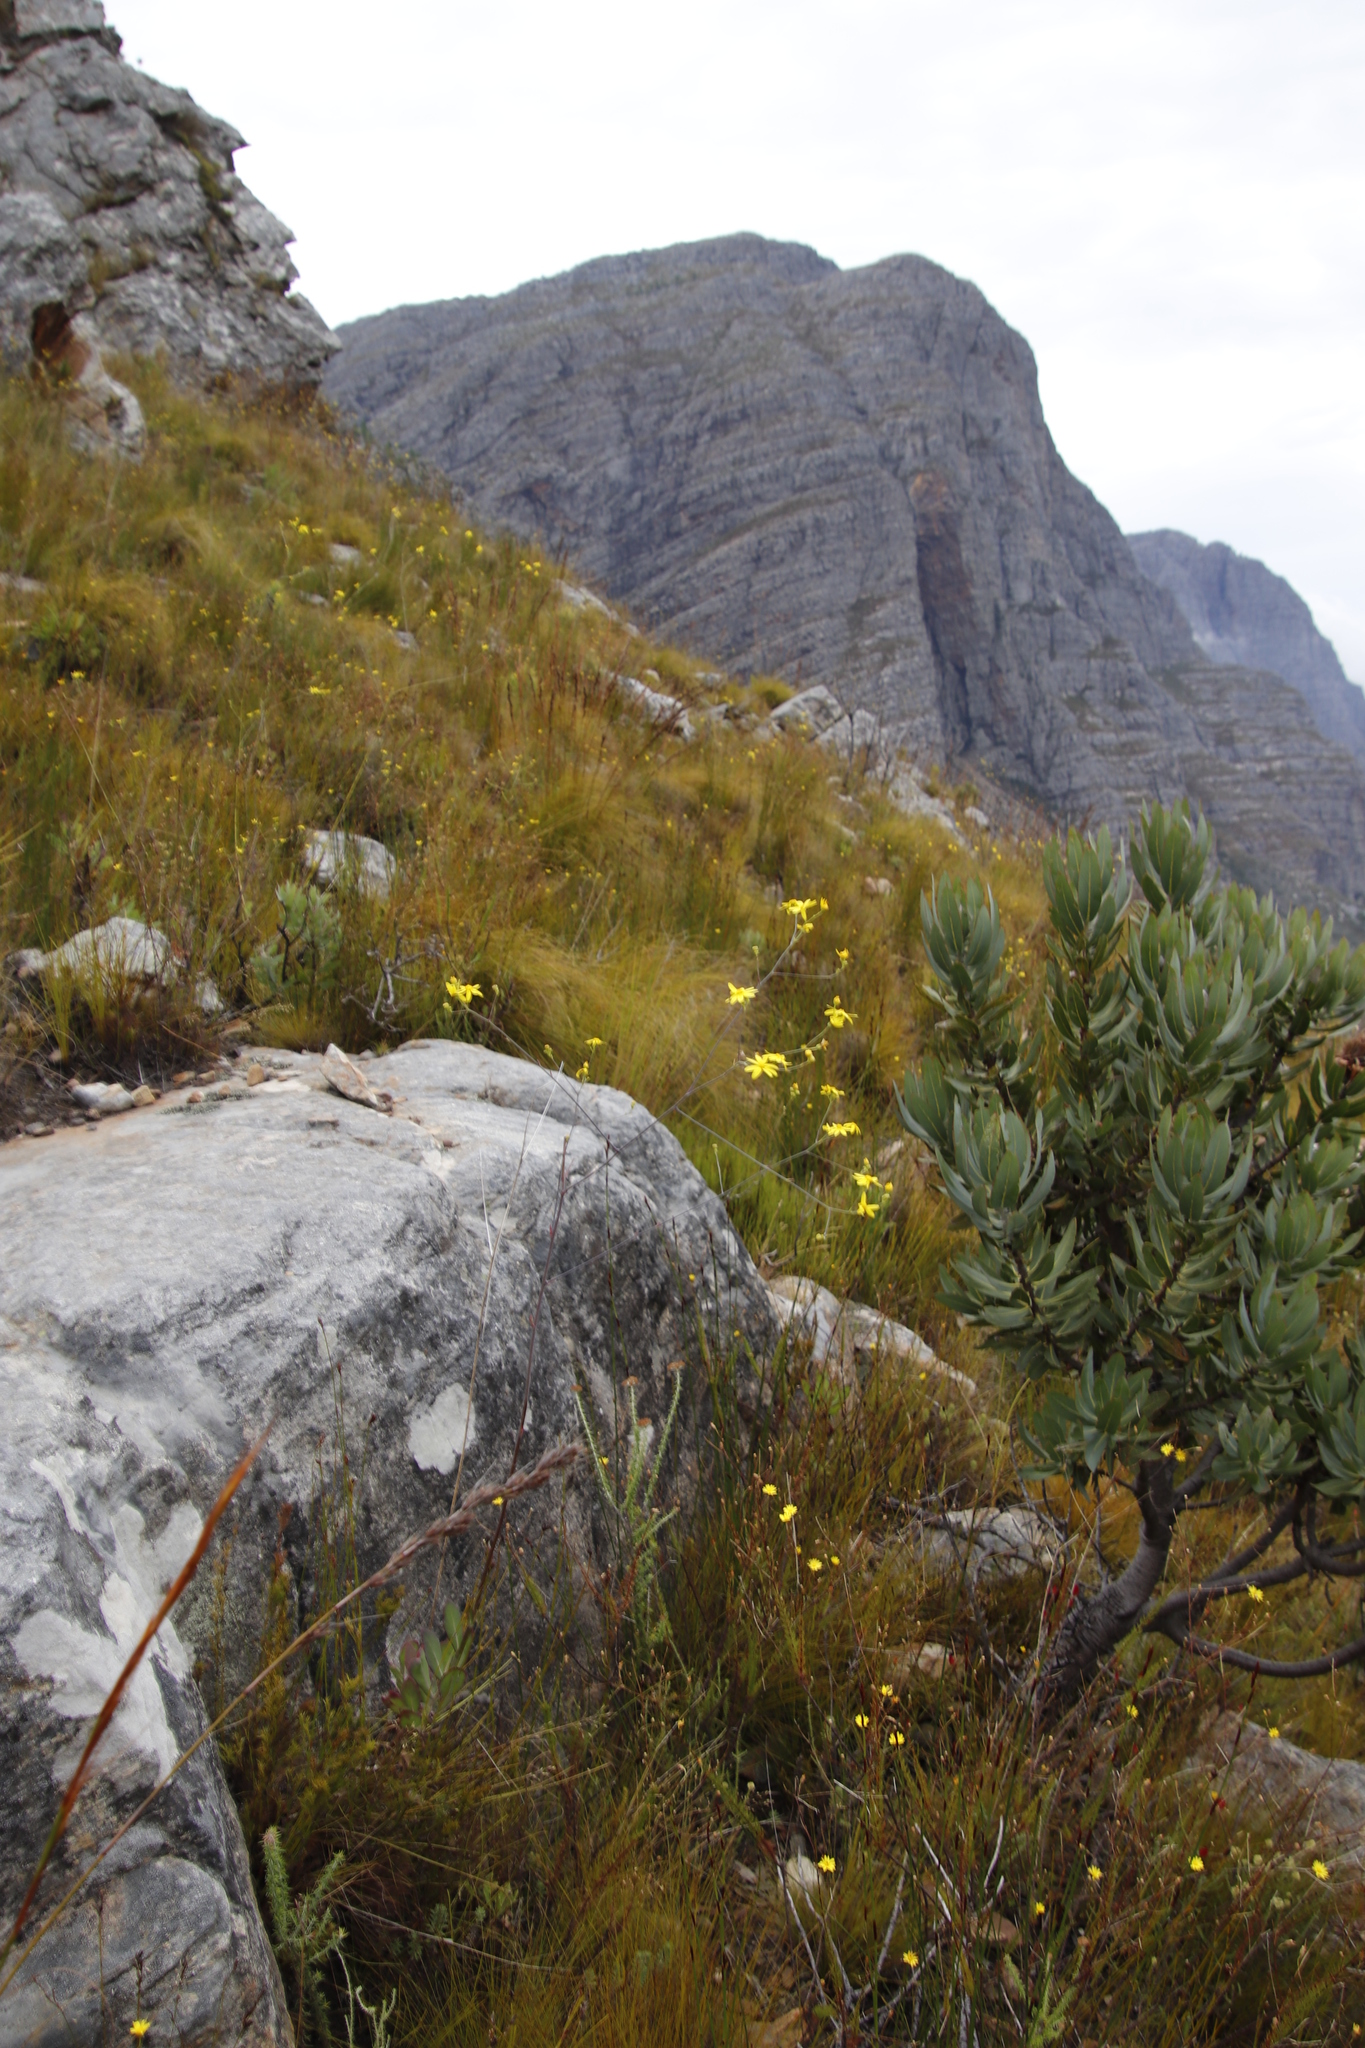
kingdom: Plantae
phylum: Tracheophyta
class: Magnoliopsida
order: Asterales
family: Asteraceae
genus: Othonna
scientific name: Othonna quinquedentata
